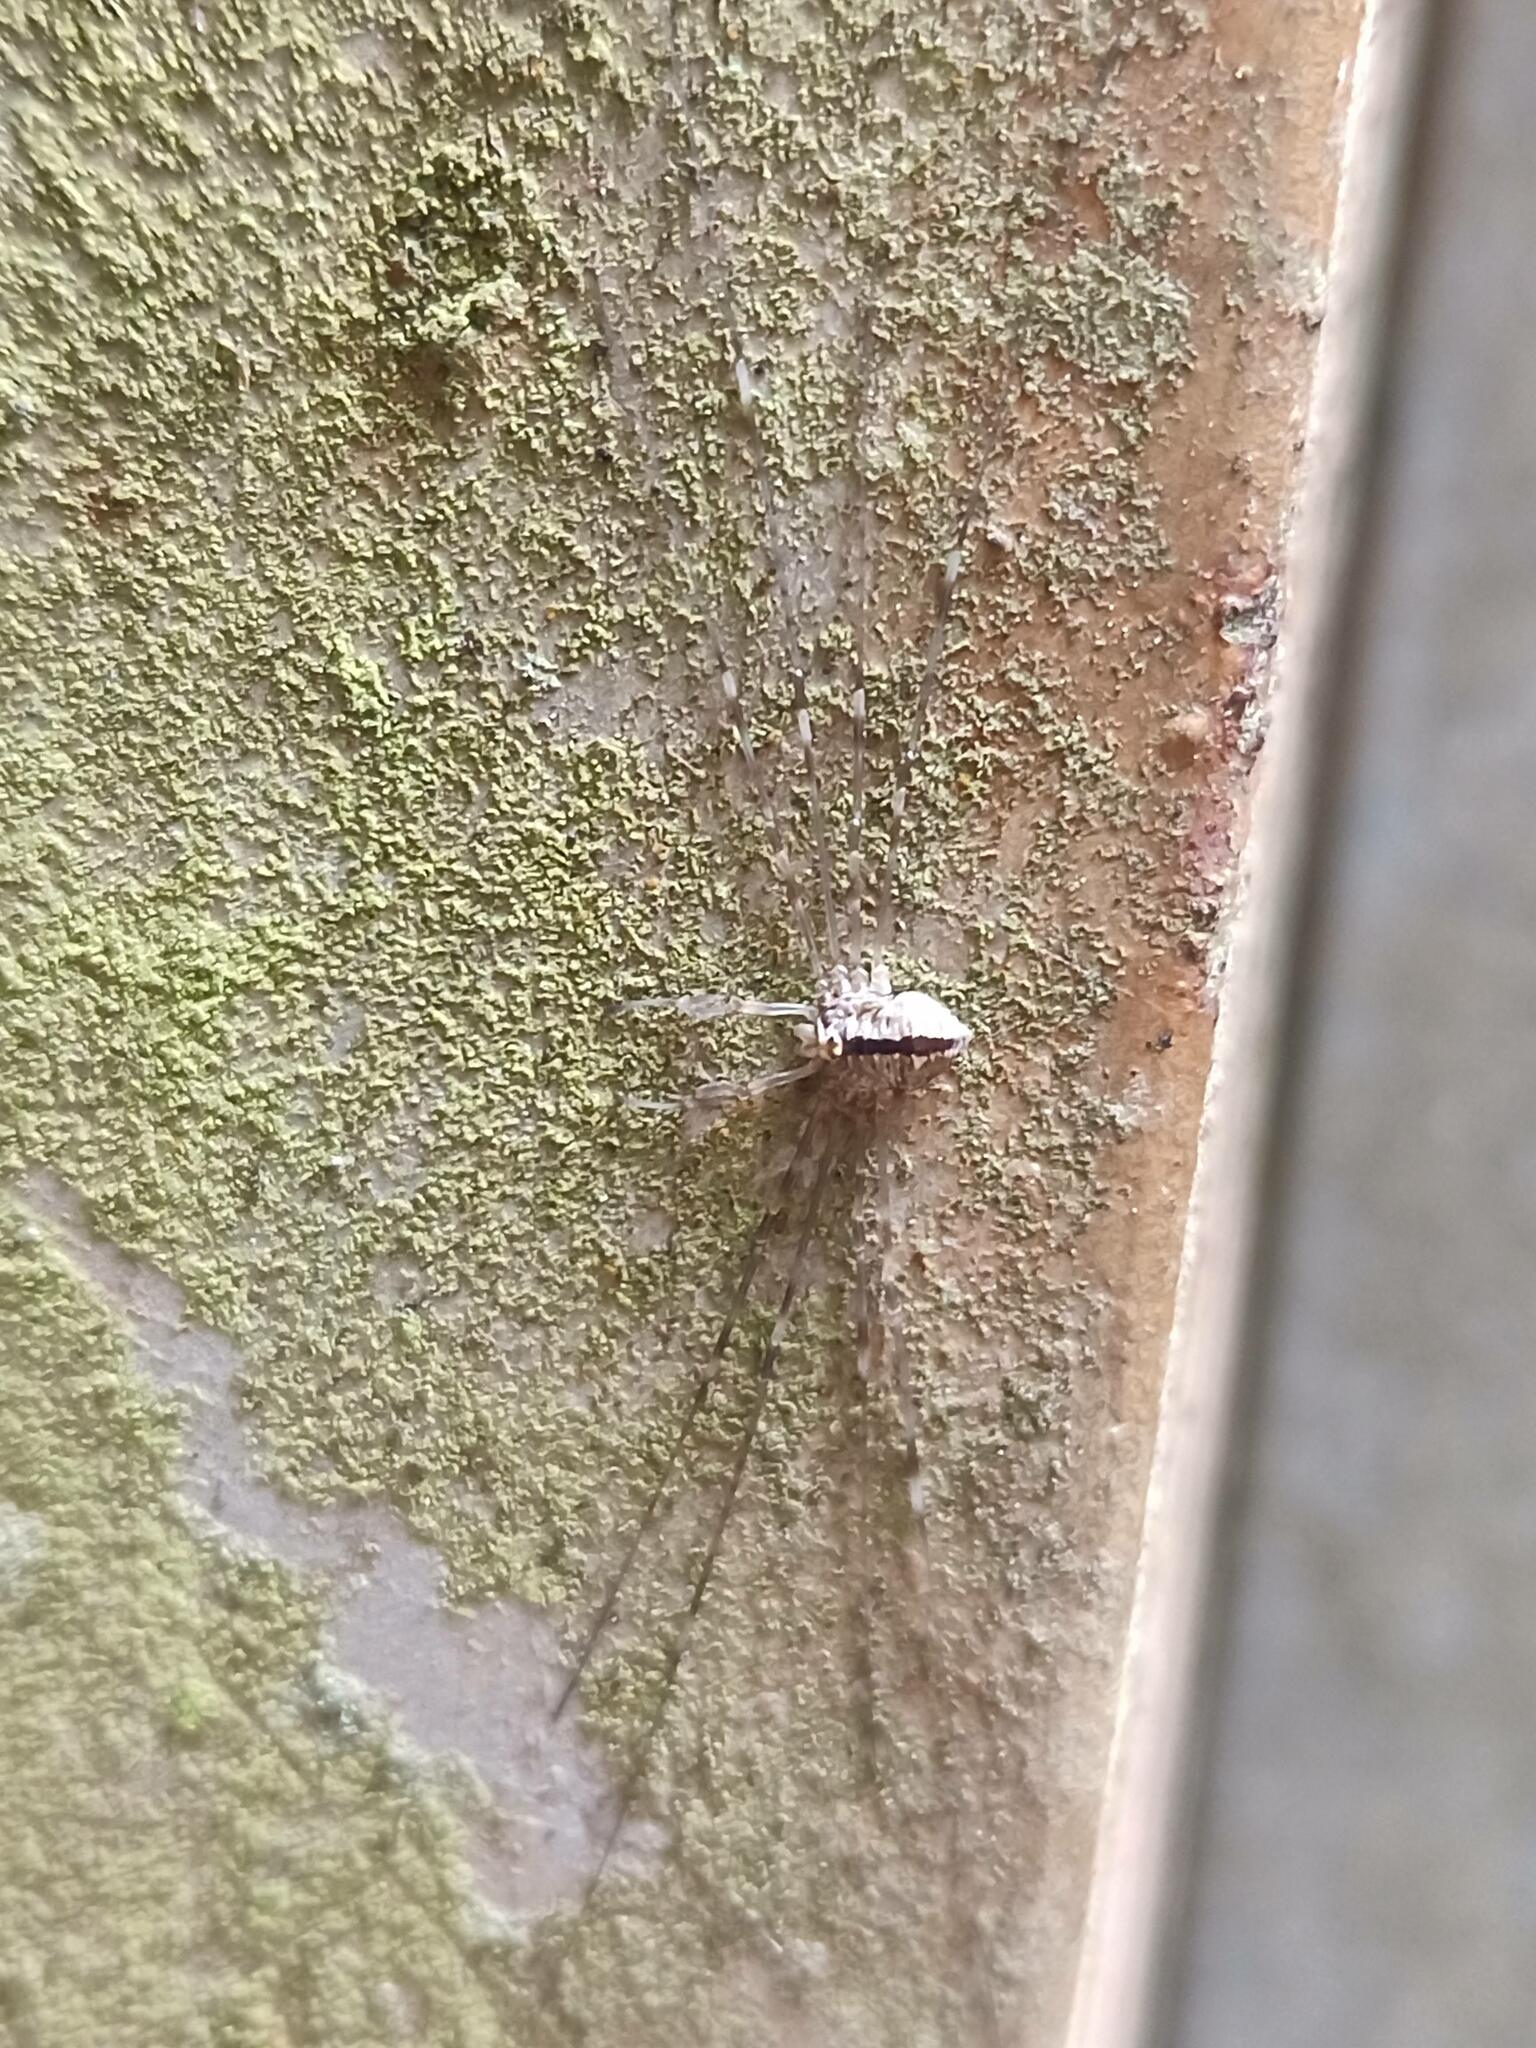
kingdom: Animalia
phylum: Arthropoda
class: Arachnida
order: Opiliones
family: Phalangiidae
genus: Dicranopalpus
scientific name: Dicranopalpus
